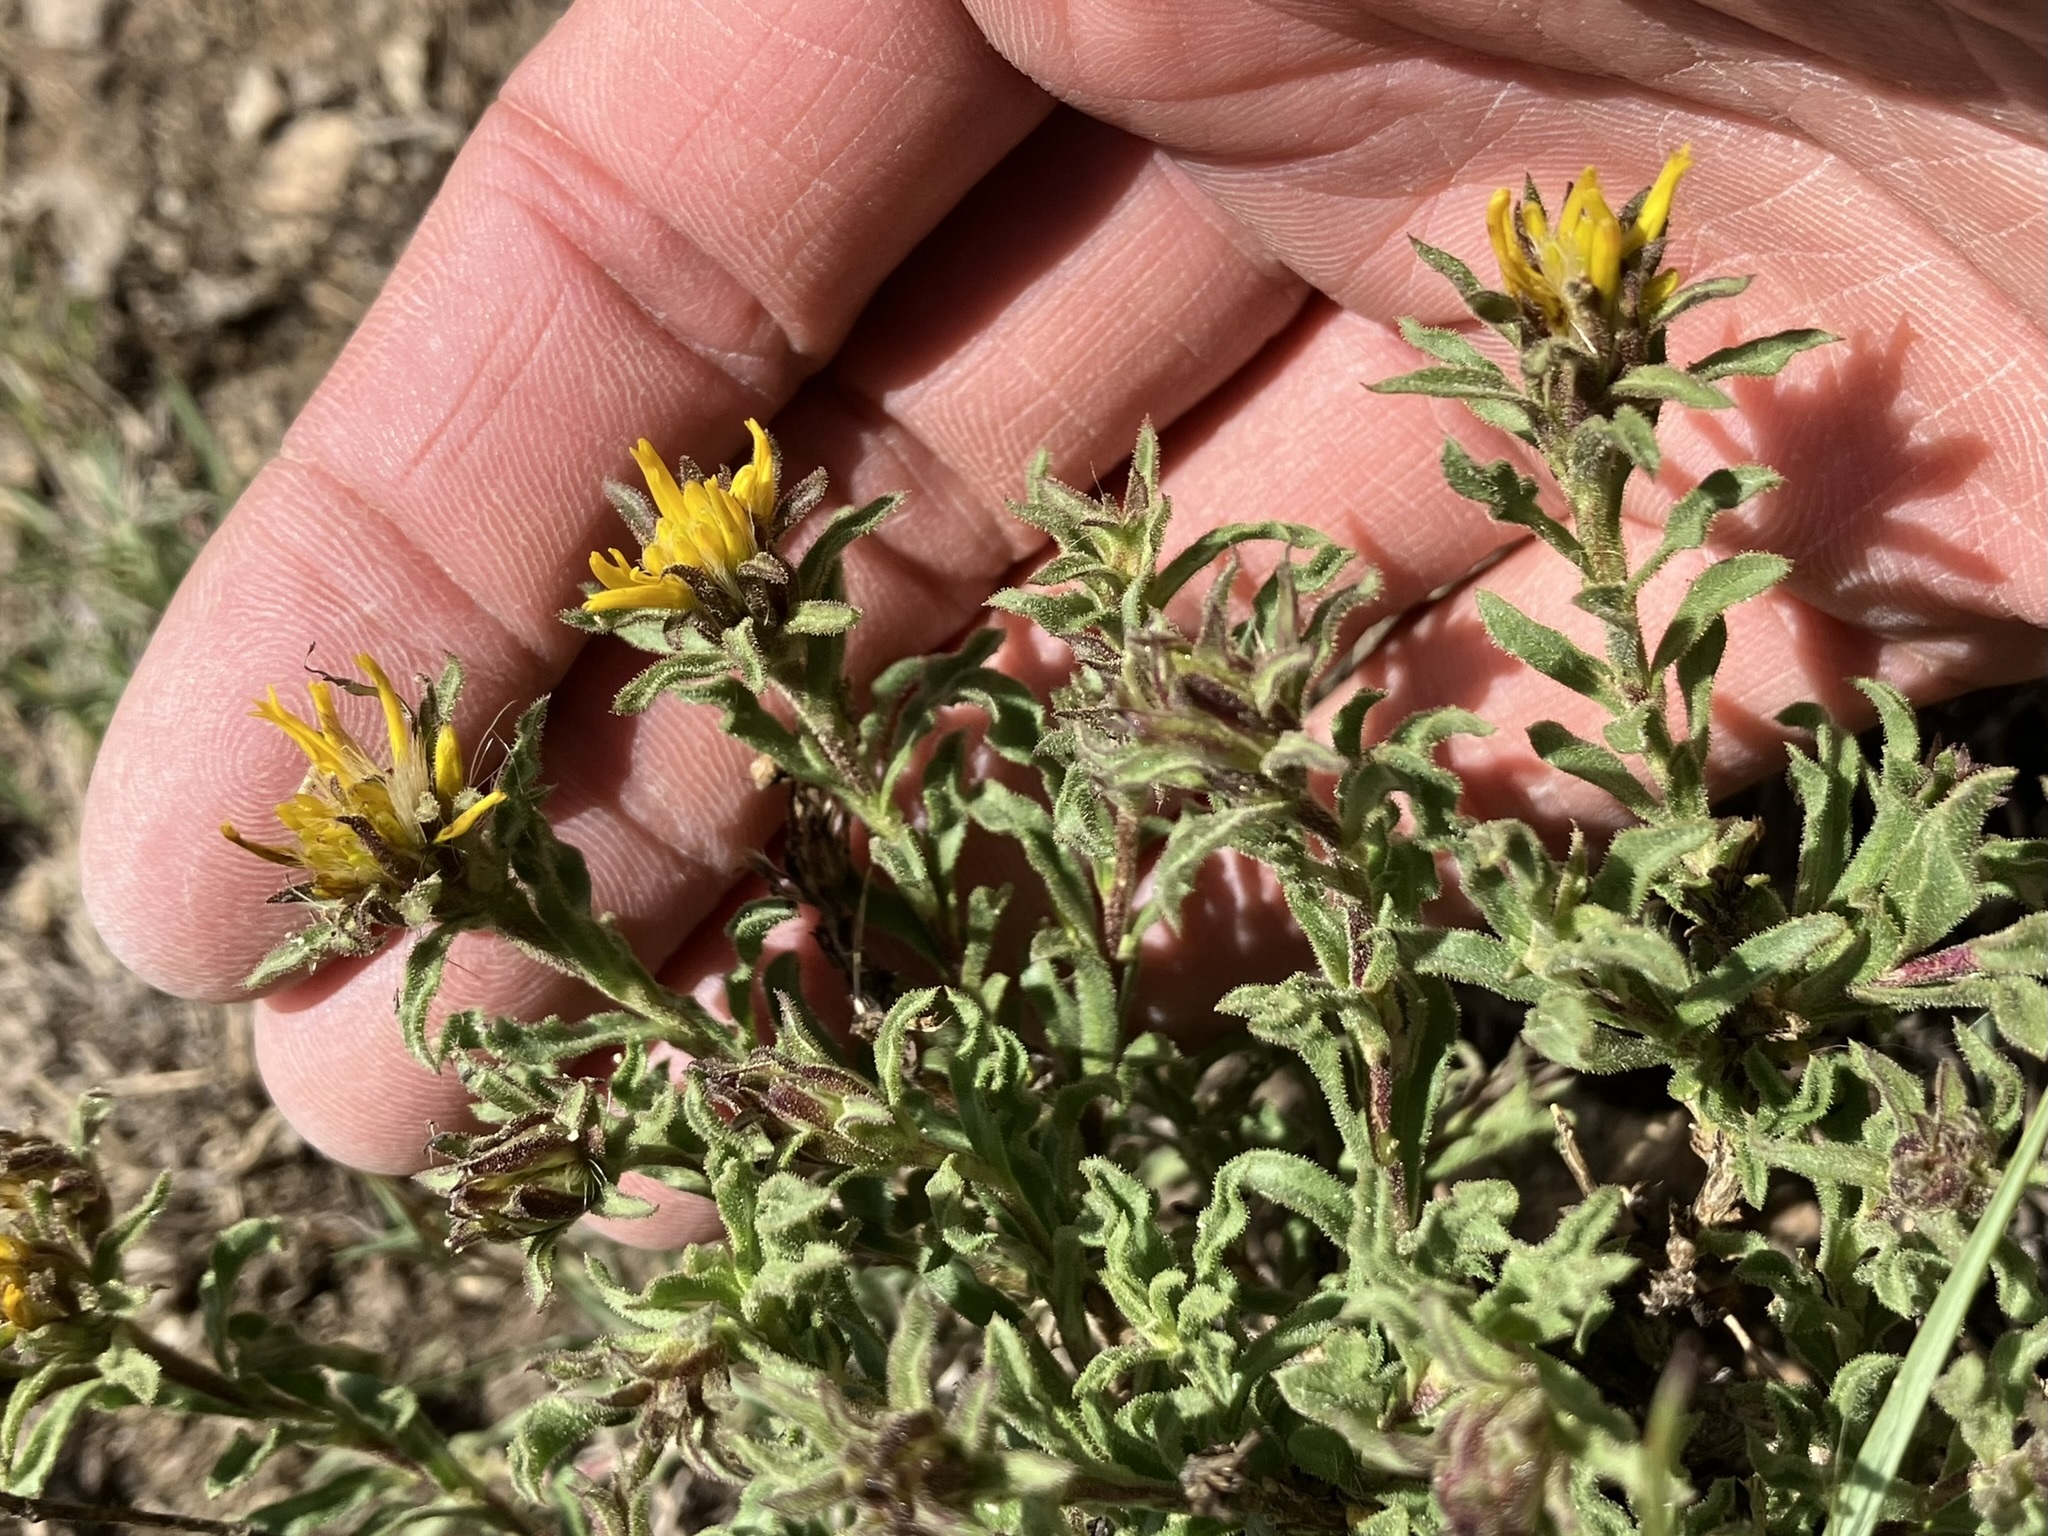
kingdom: Plantae
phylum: Tracheophyta
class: Magnoliopsida
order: Asterales
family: Asteraceae
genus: Ericameria
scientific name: Ericameria suffruticosa
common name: Goldenweed
